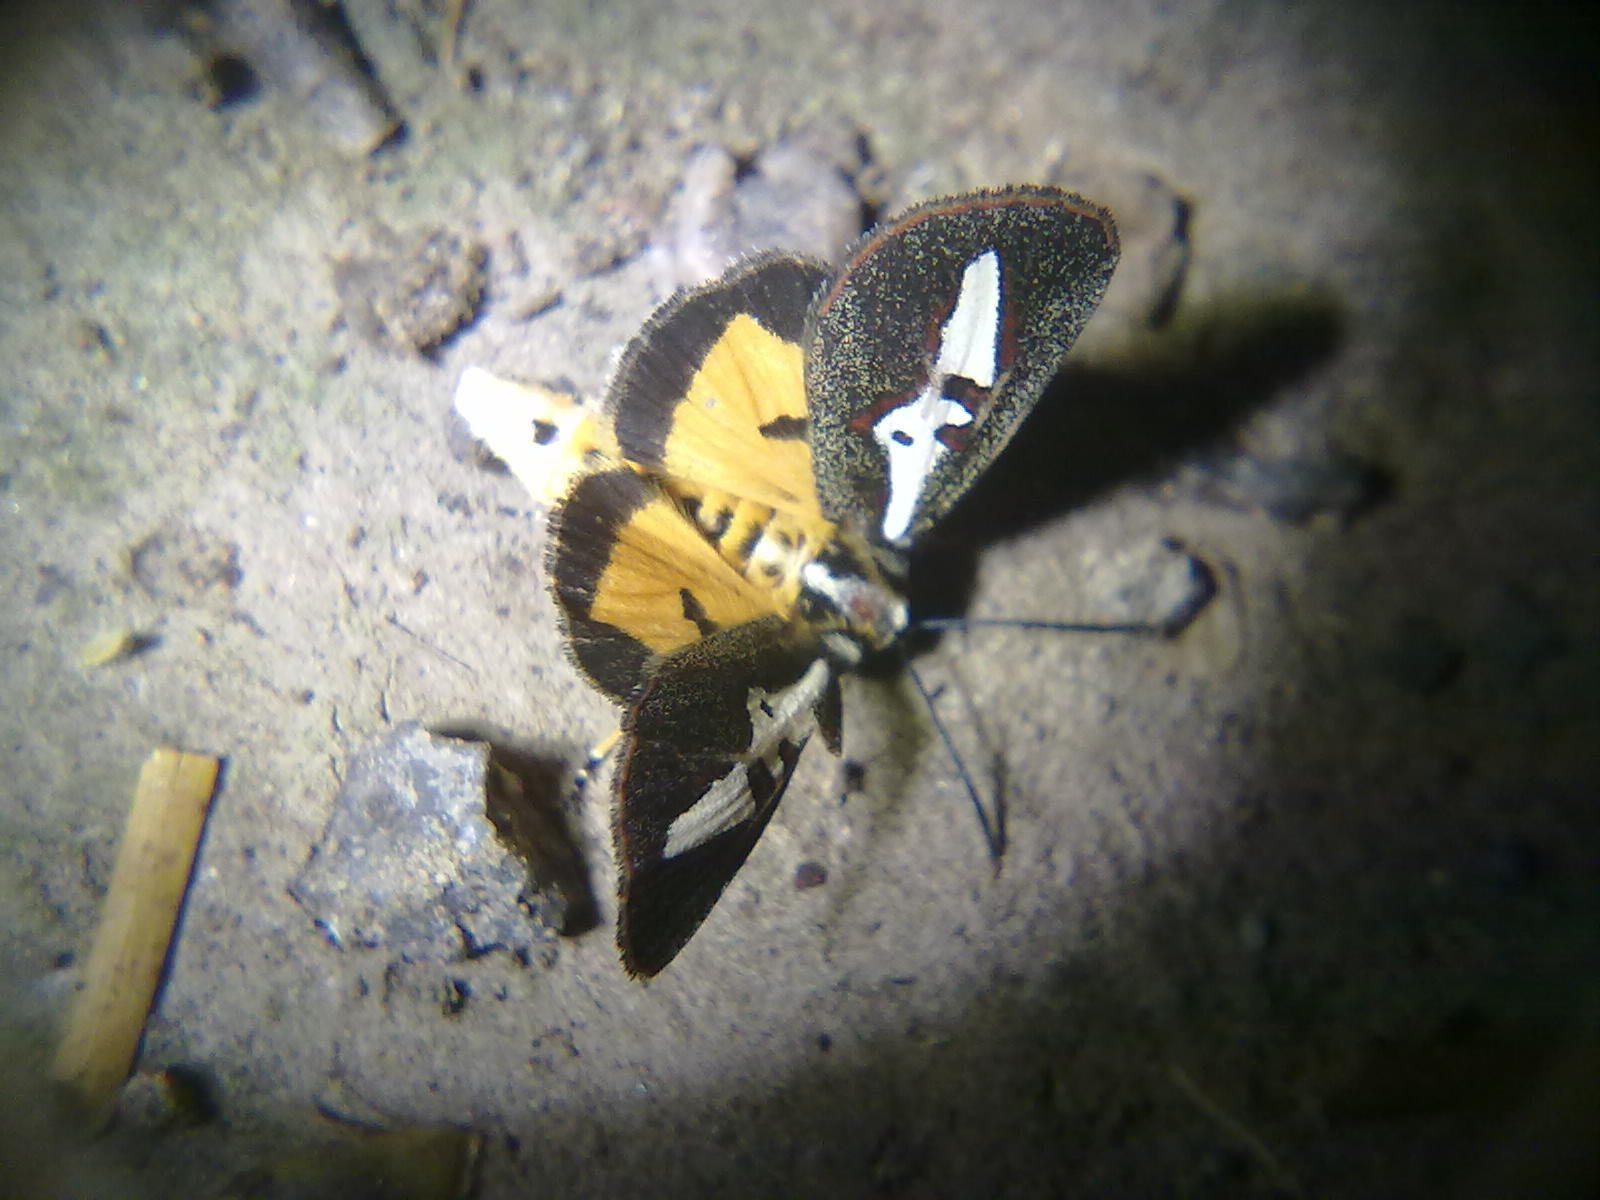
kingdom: Animalia
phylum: Arthropoda
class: Insecta
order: Lepidoptera
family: Noctuidae
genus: Aegocera
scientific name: Aegocera venulia
